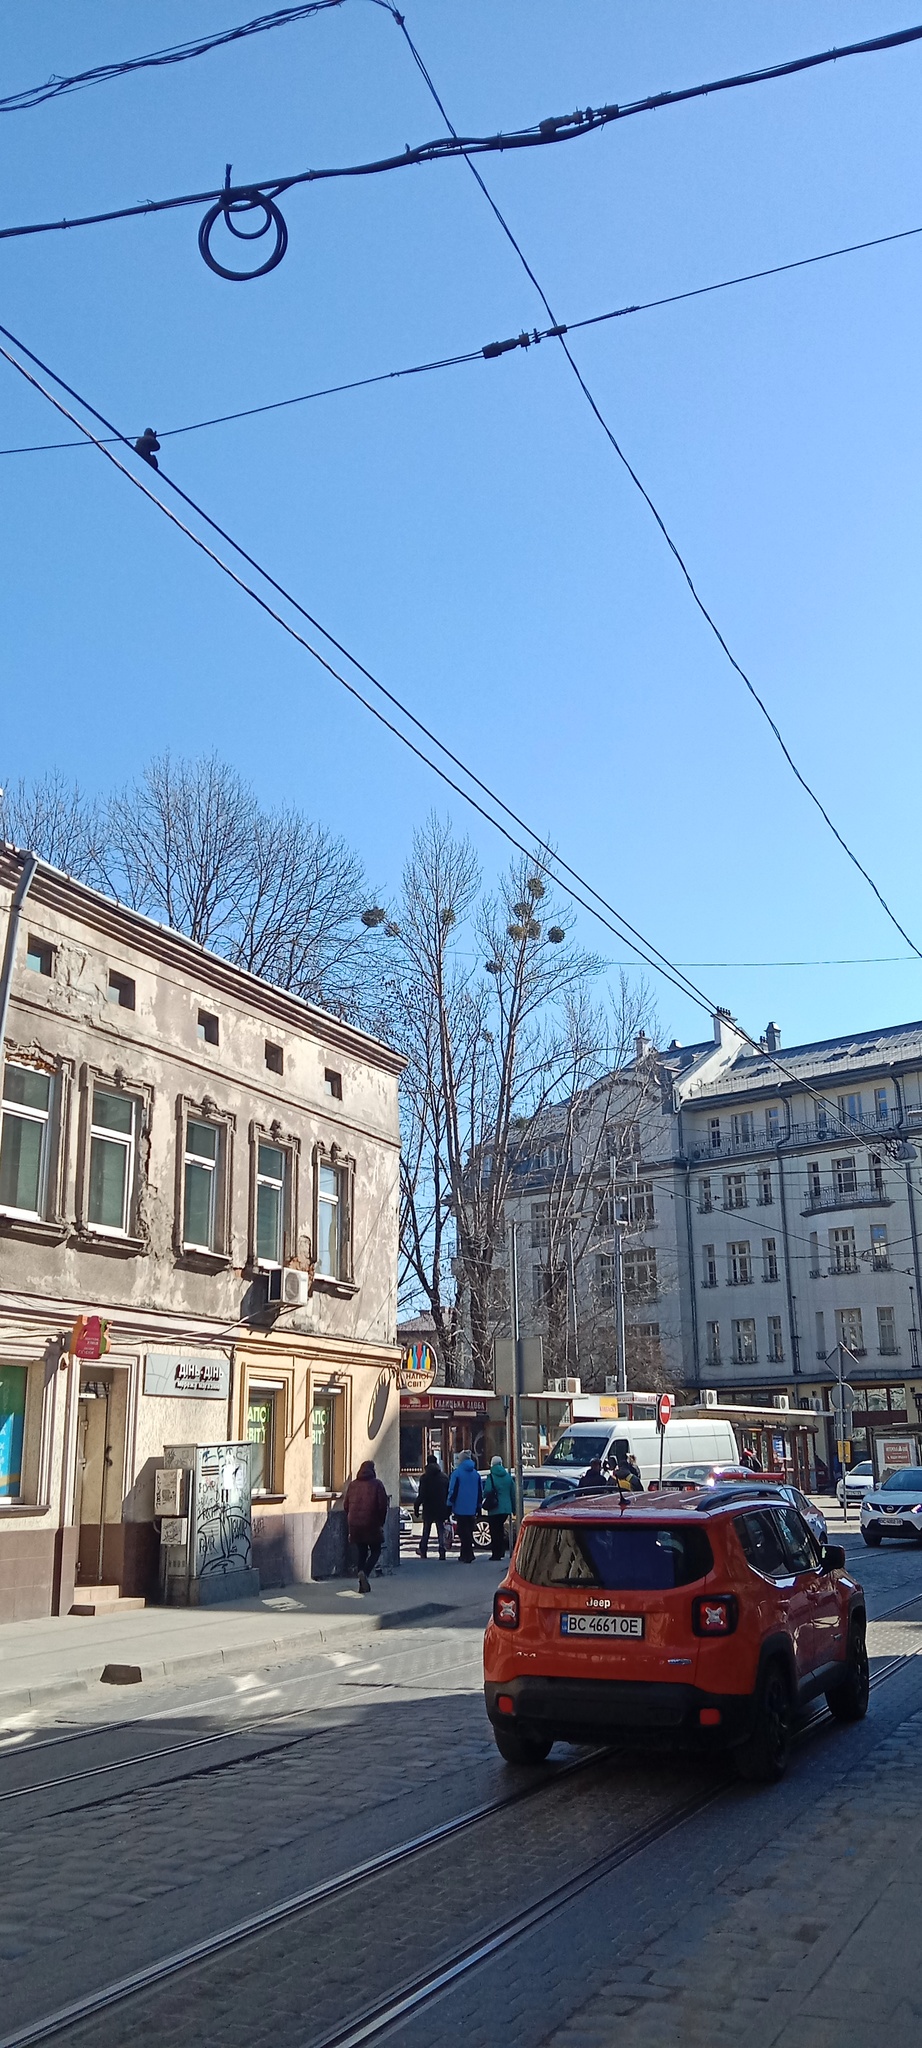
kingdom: Plantae
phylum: Tracheophyta
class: Magnoliopsida
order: Santalales
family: Viscaceae
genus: Viscum
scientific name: Viscum album
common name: Mistletoe
